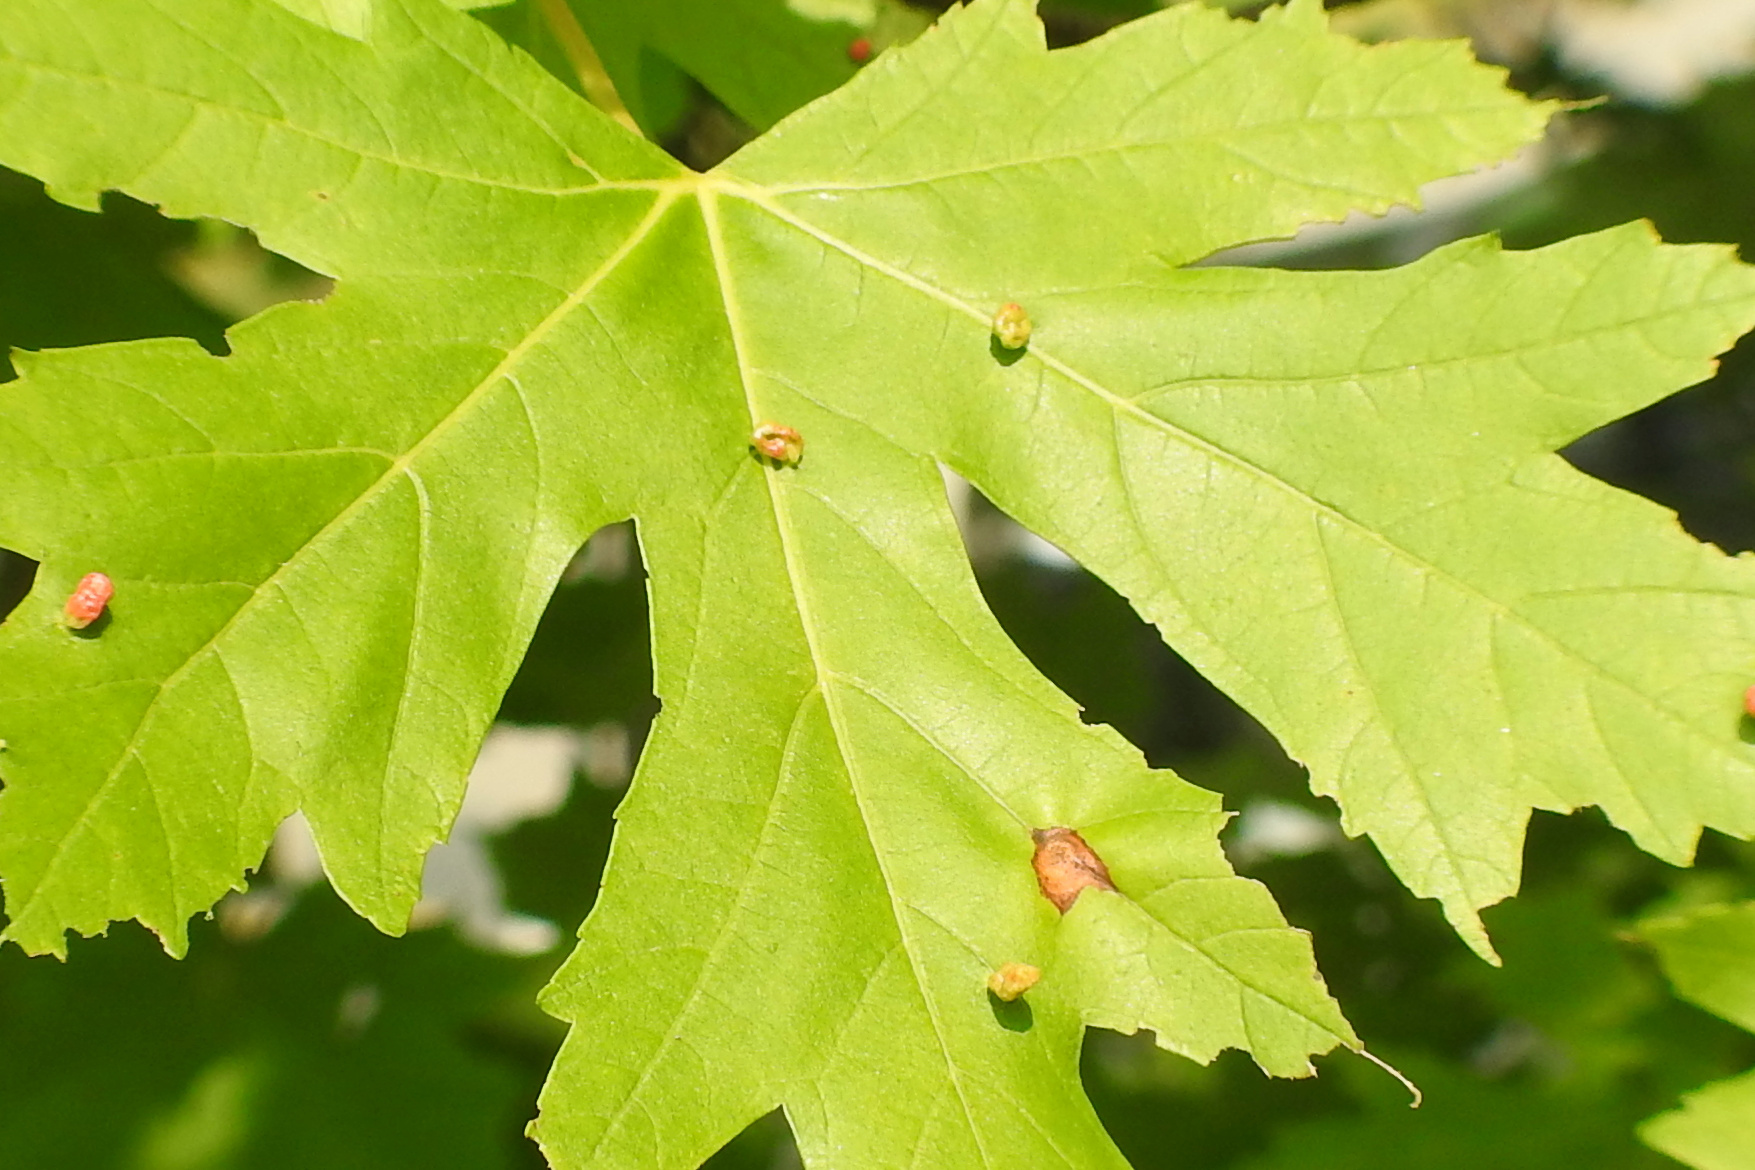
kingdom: Plantae
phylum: Tracheophyta
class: Magnoliopsida
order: Sapindales
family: Sapindaceae
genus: Acer
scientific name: Acer saccharinum
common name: Silver maple
